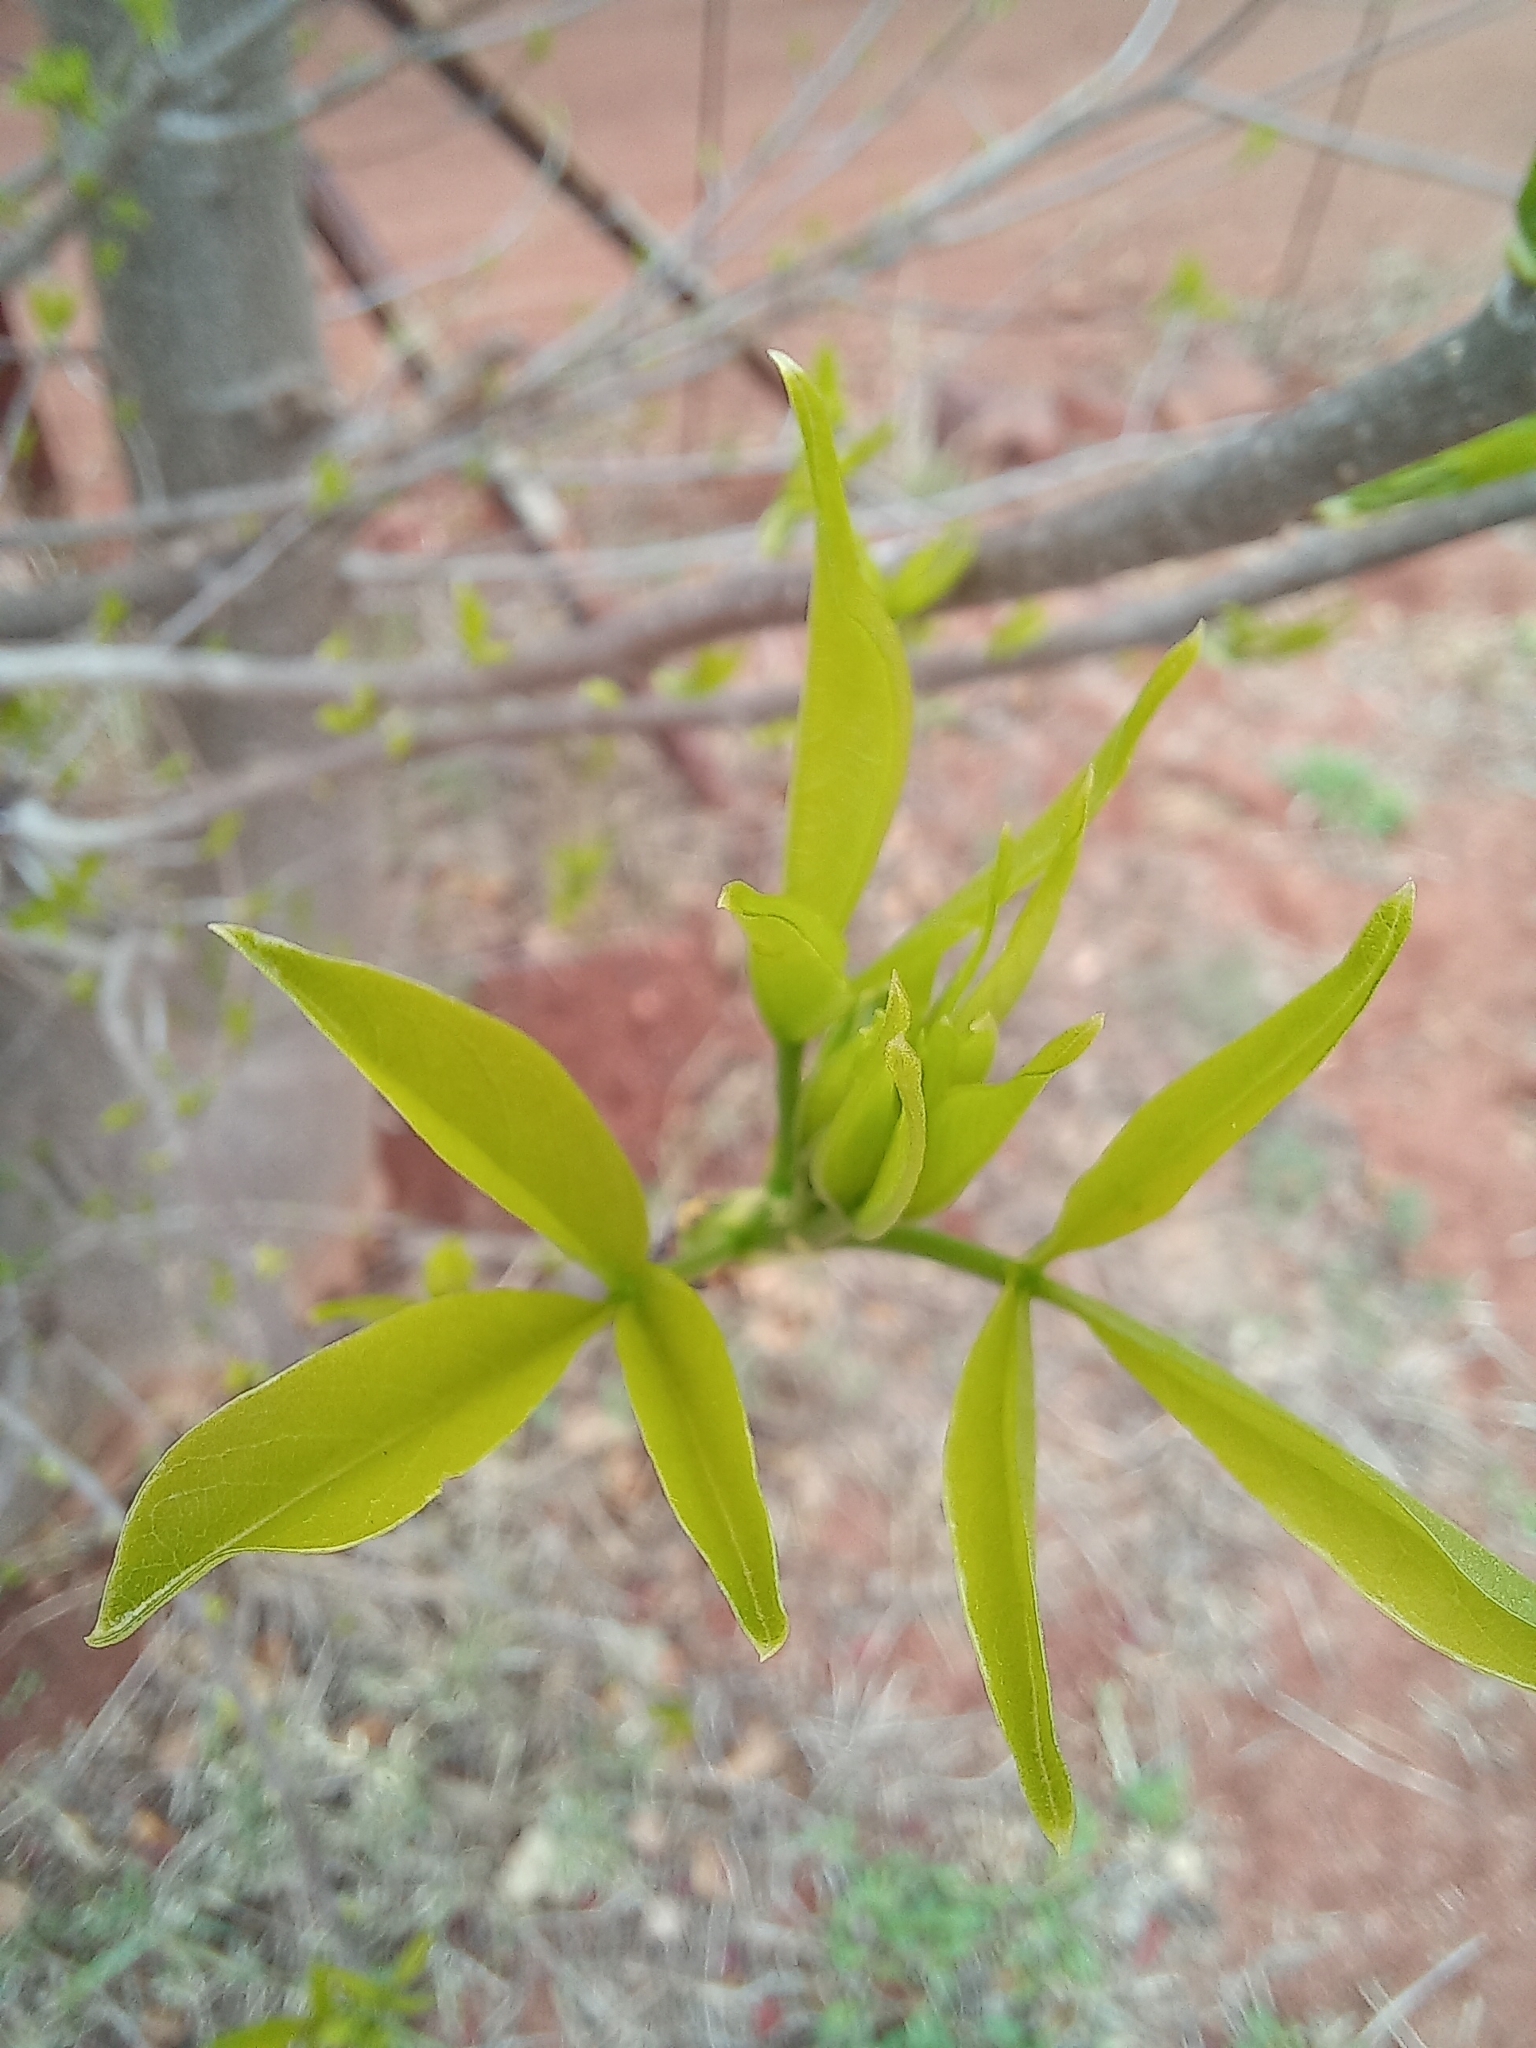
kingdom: Plantae
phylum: Tracheophyta
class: Magnoliopsida
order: Malvales
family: Malvaceae
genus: Adansonia
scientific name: Adansonia digitata
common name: Dead-rat-tree
